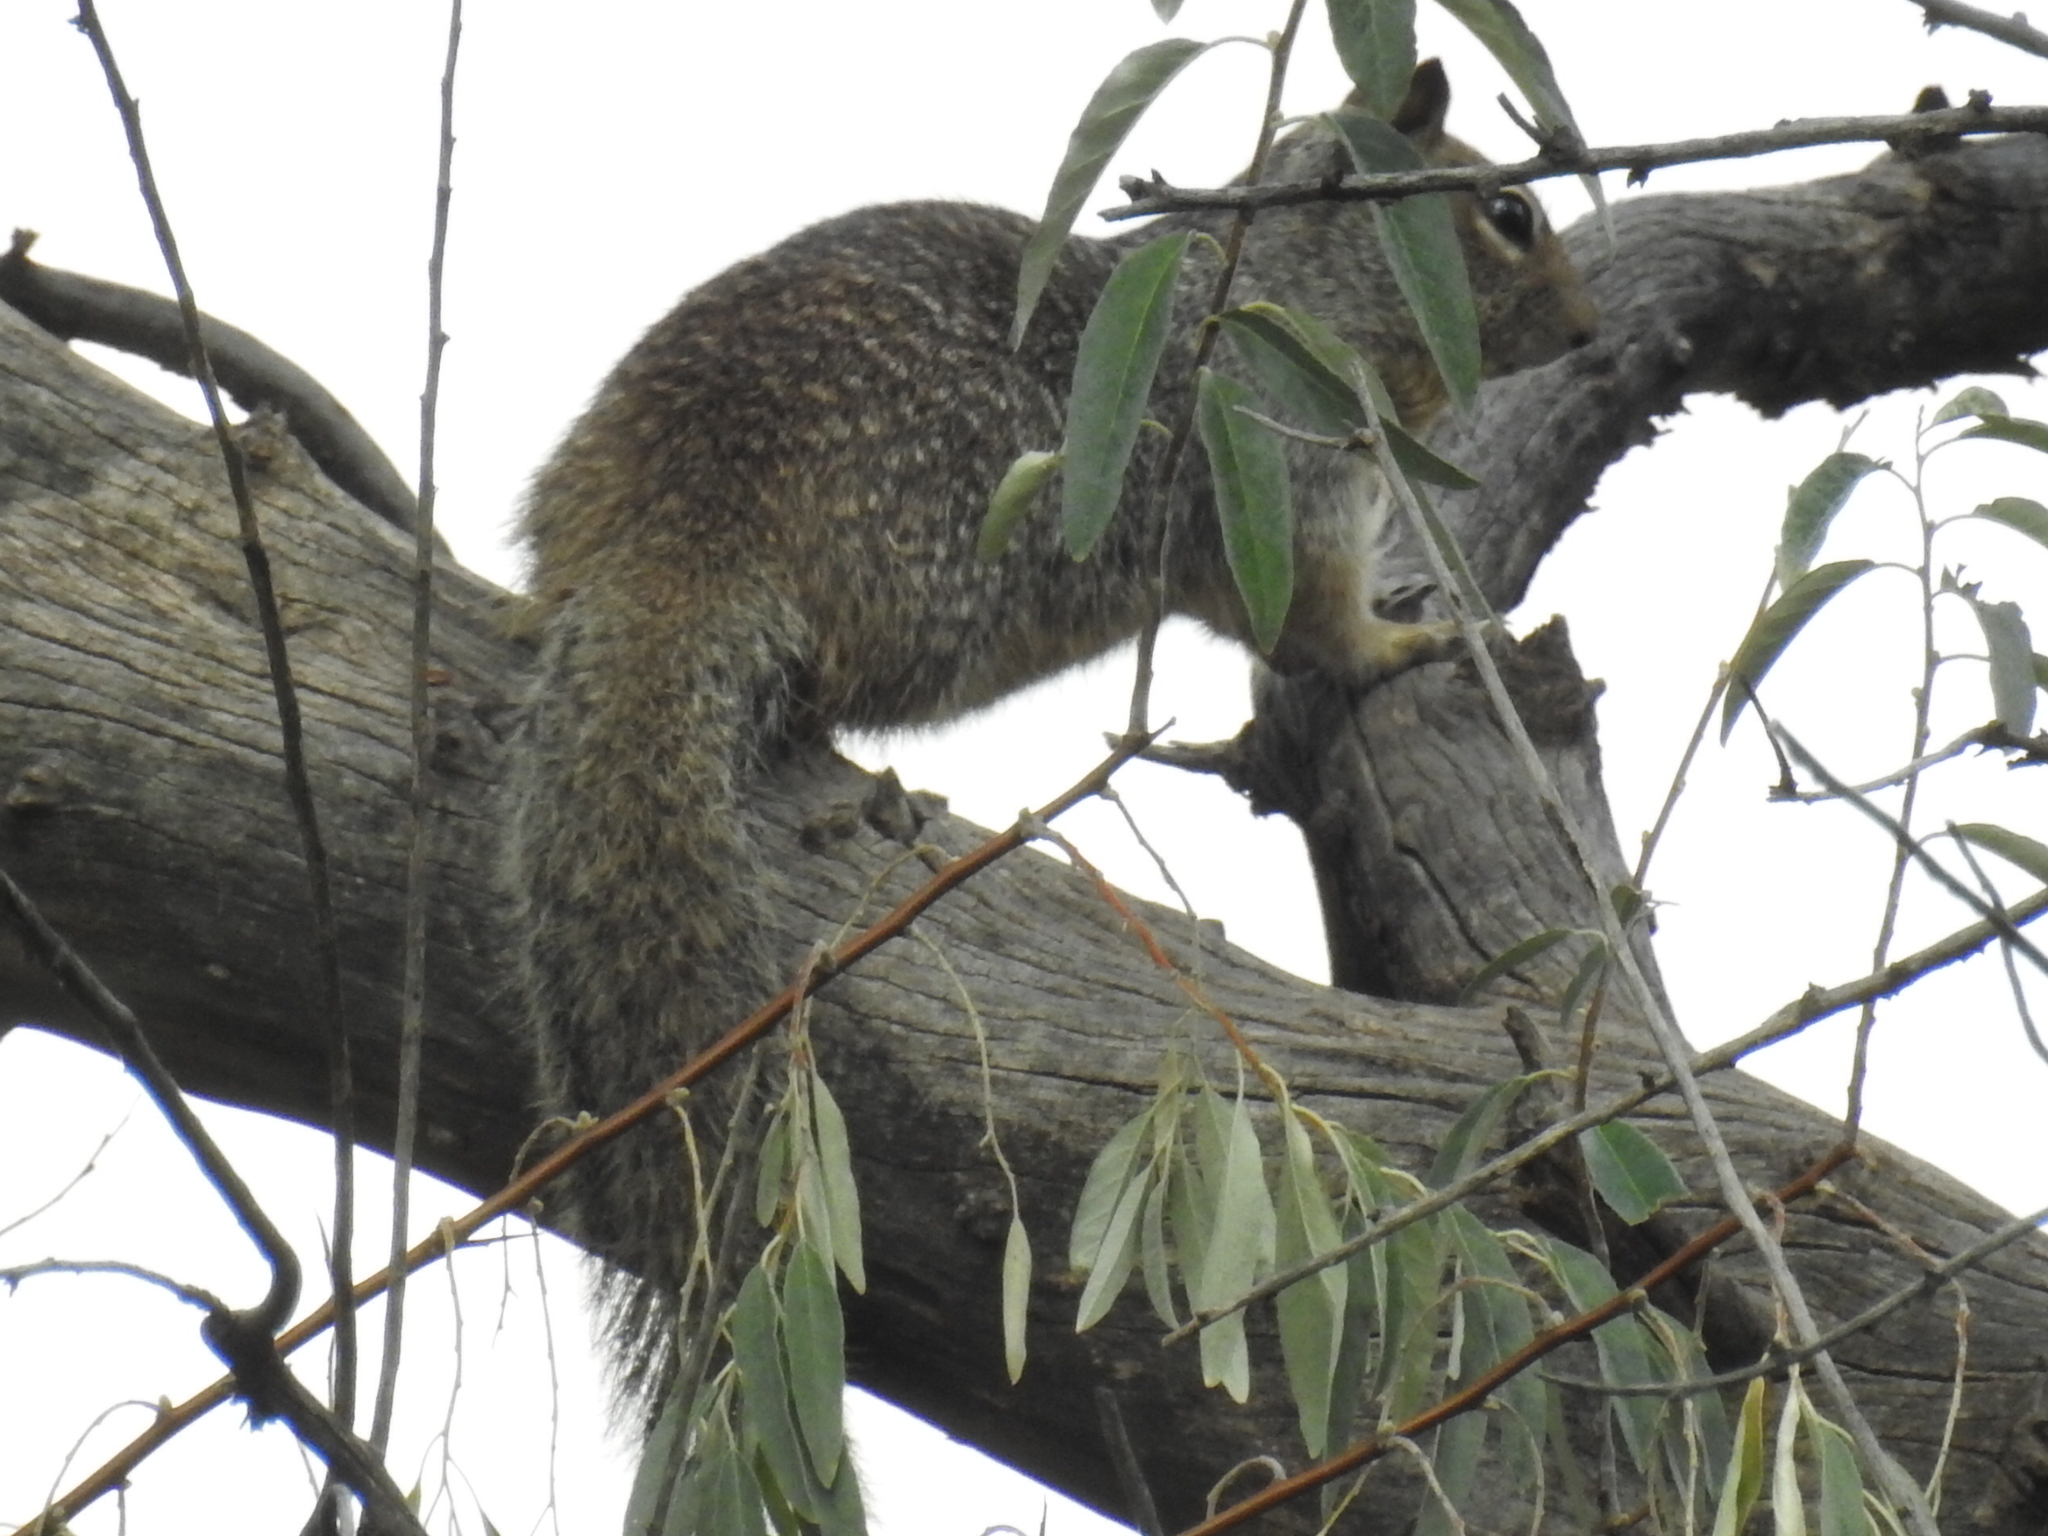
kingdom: Animalia
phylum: Chordata
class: Mammalia
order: Rodentia
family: Sciuridae
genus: Otospermophilus
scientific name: Otospermophilus variegatus
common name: Rock squirrel
